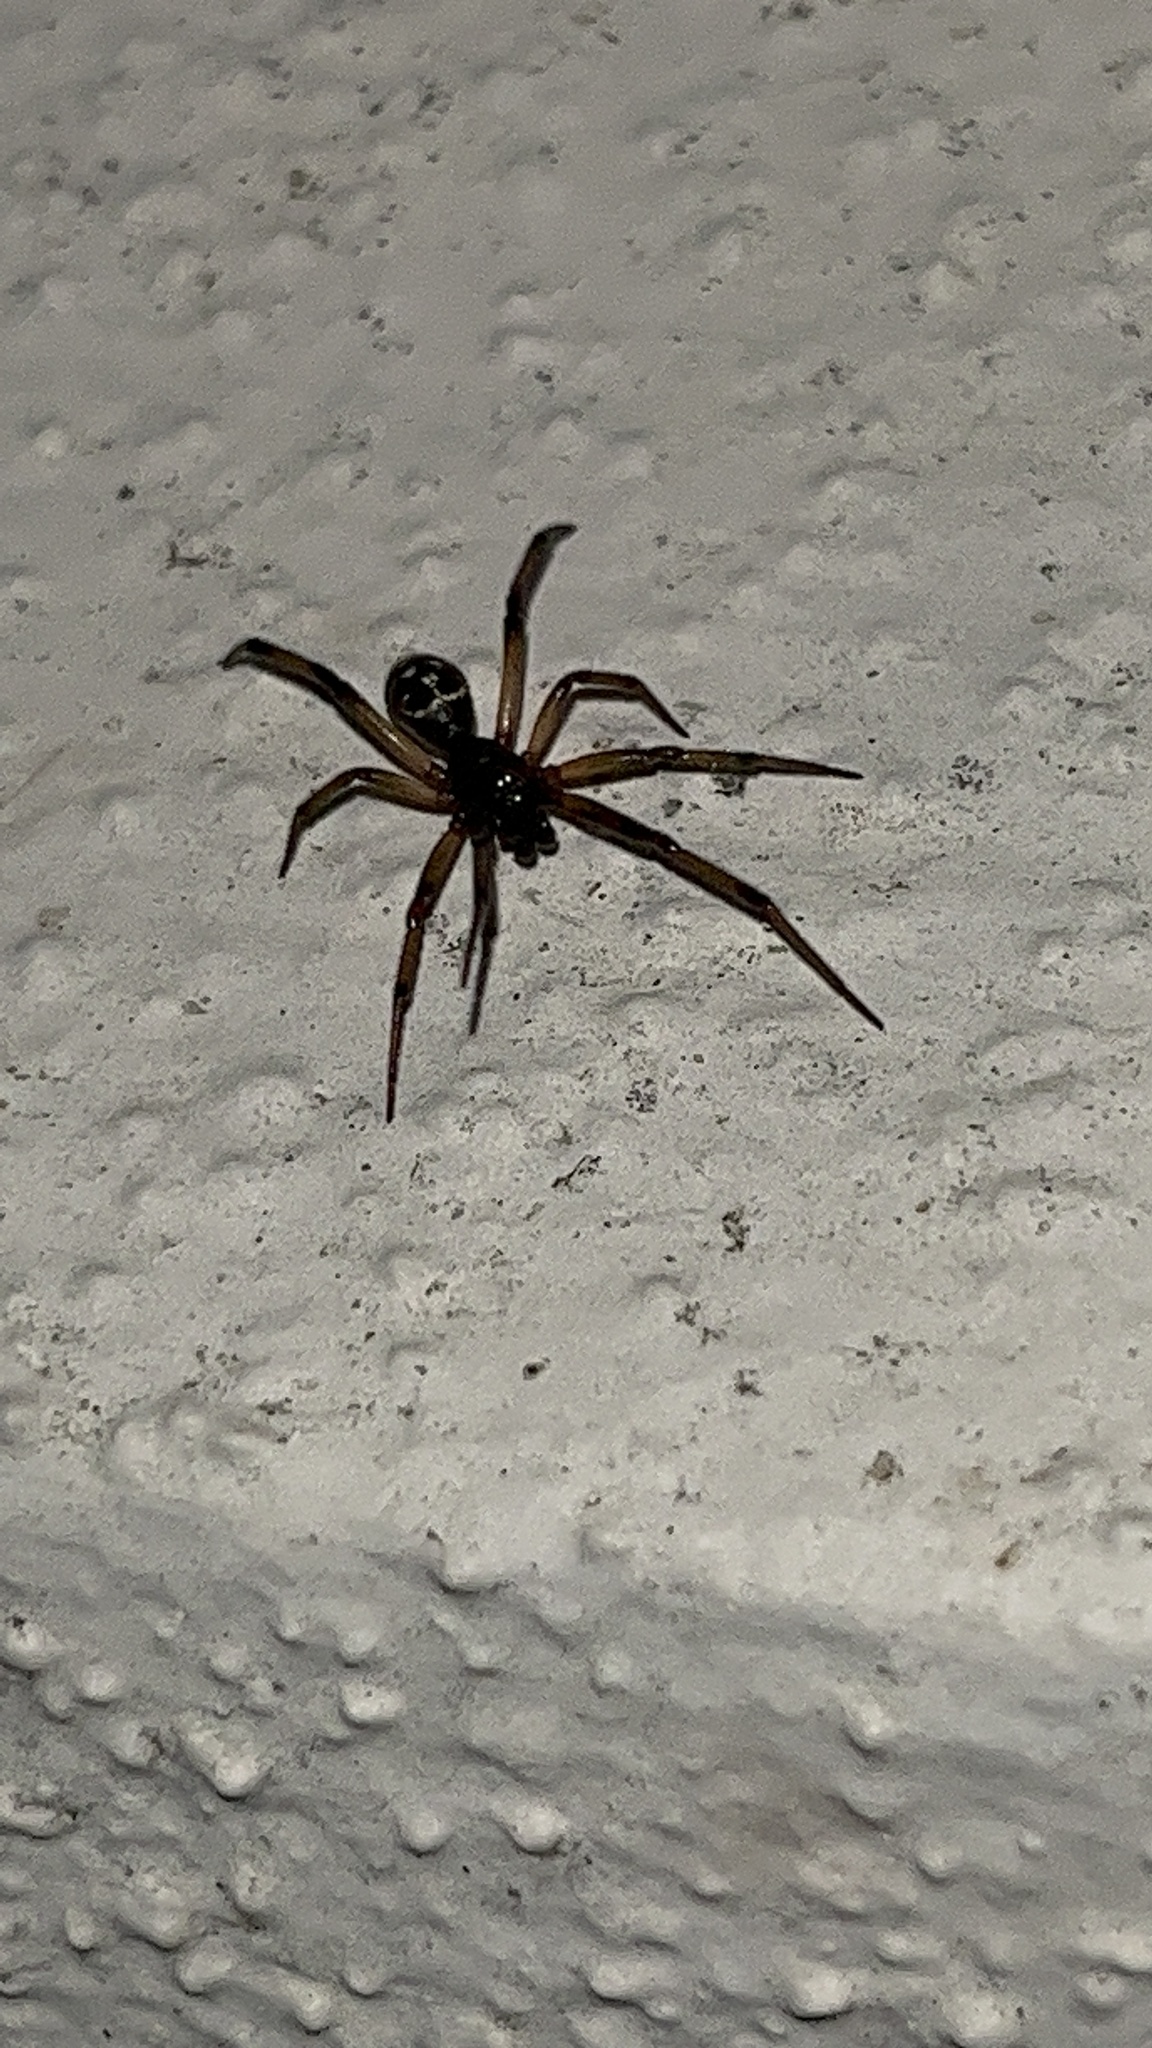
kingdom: Animalia
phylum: Arthropoda
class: Arachnida
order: Araneae
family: Theridiidae
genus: Steatoda
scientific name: Steatoda capensis
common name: Cobweb weaver
